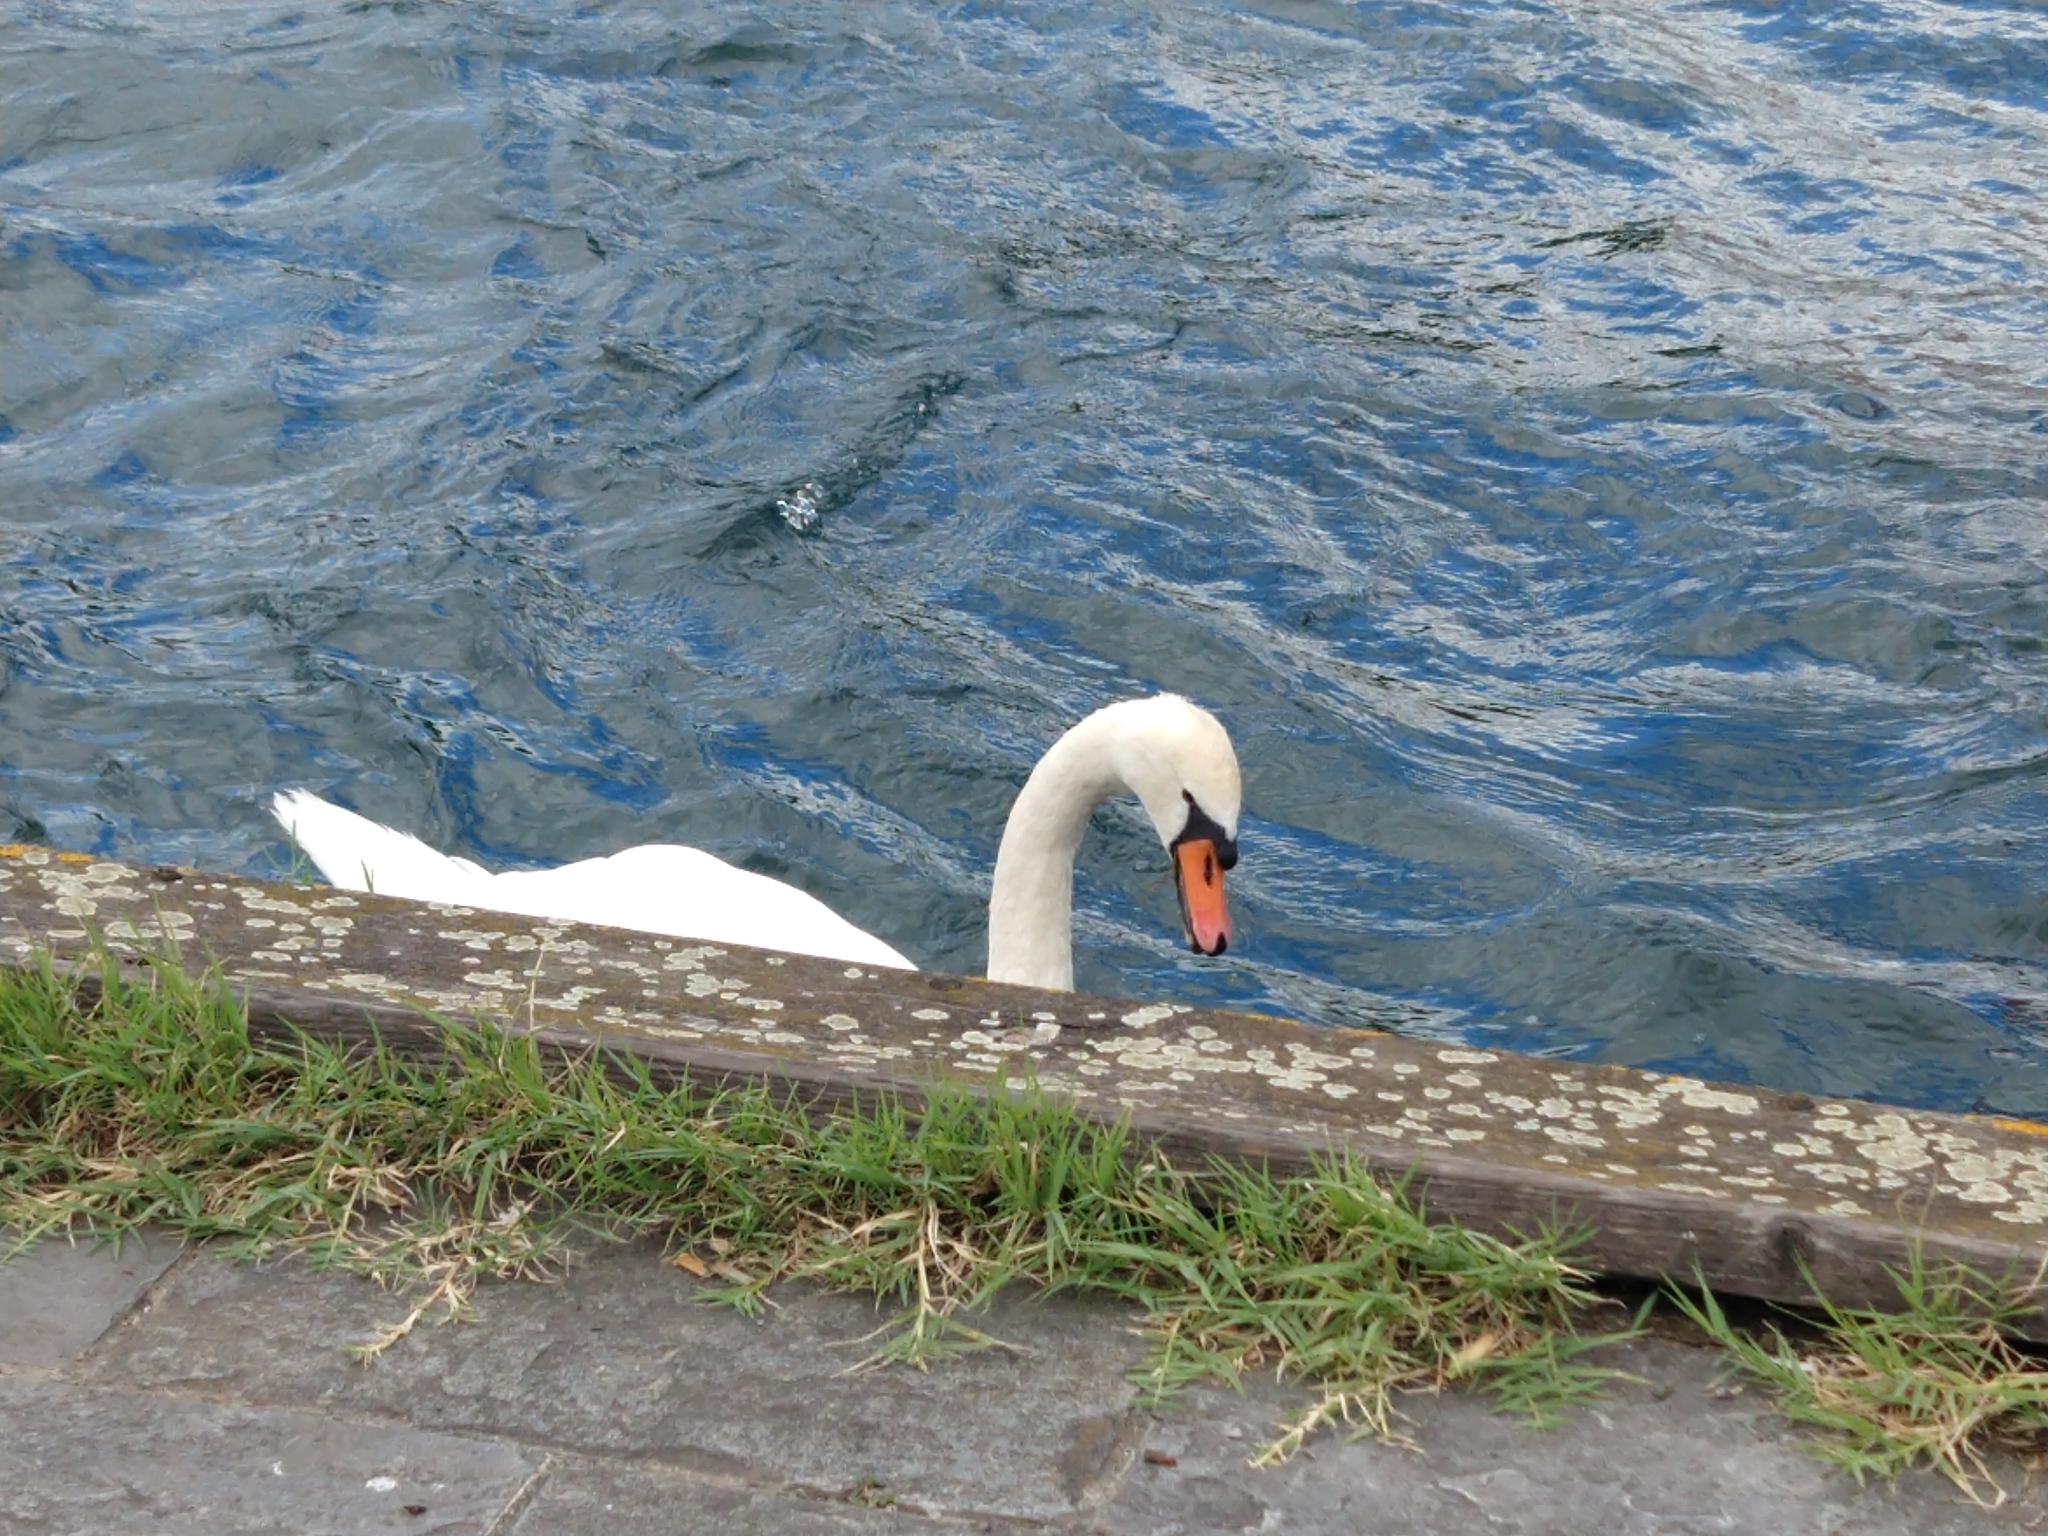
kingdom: Animalia
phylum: Chordata
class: Aves
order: Anseriformes
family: Anatidae
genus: Cygnus
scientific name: Cygnus olor
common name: Mute swan
